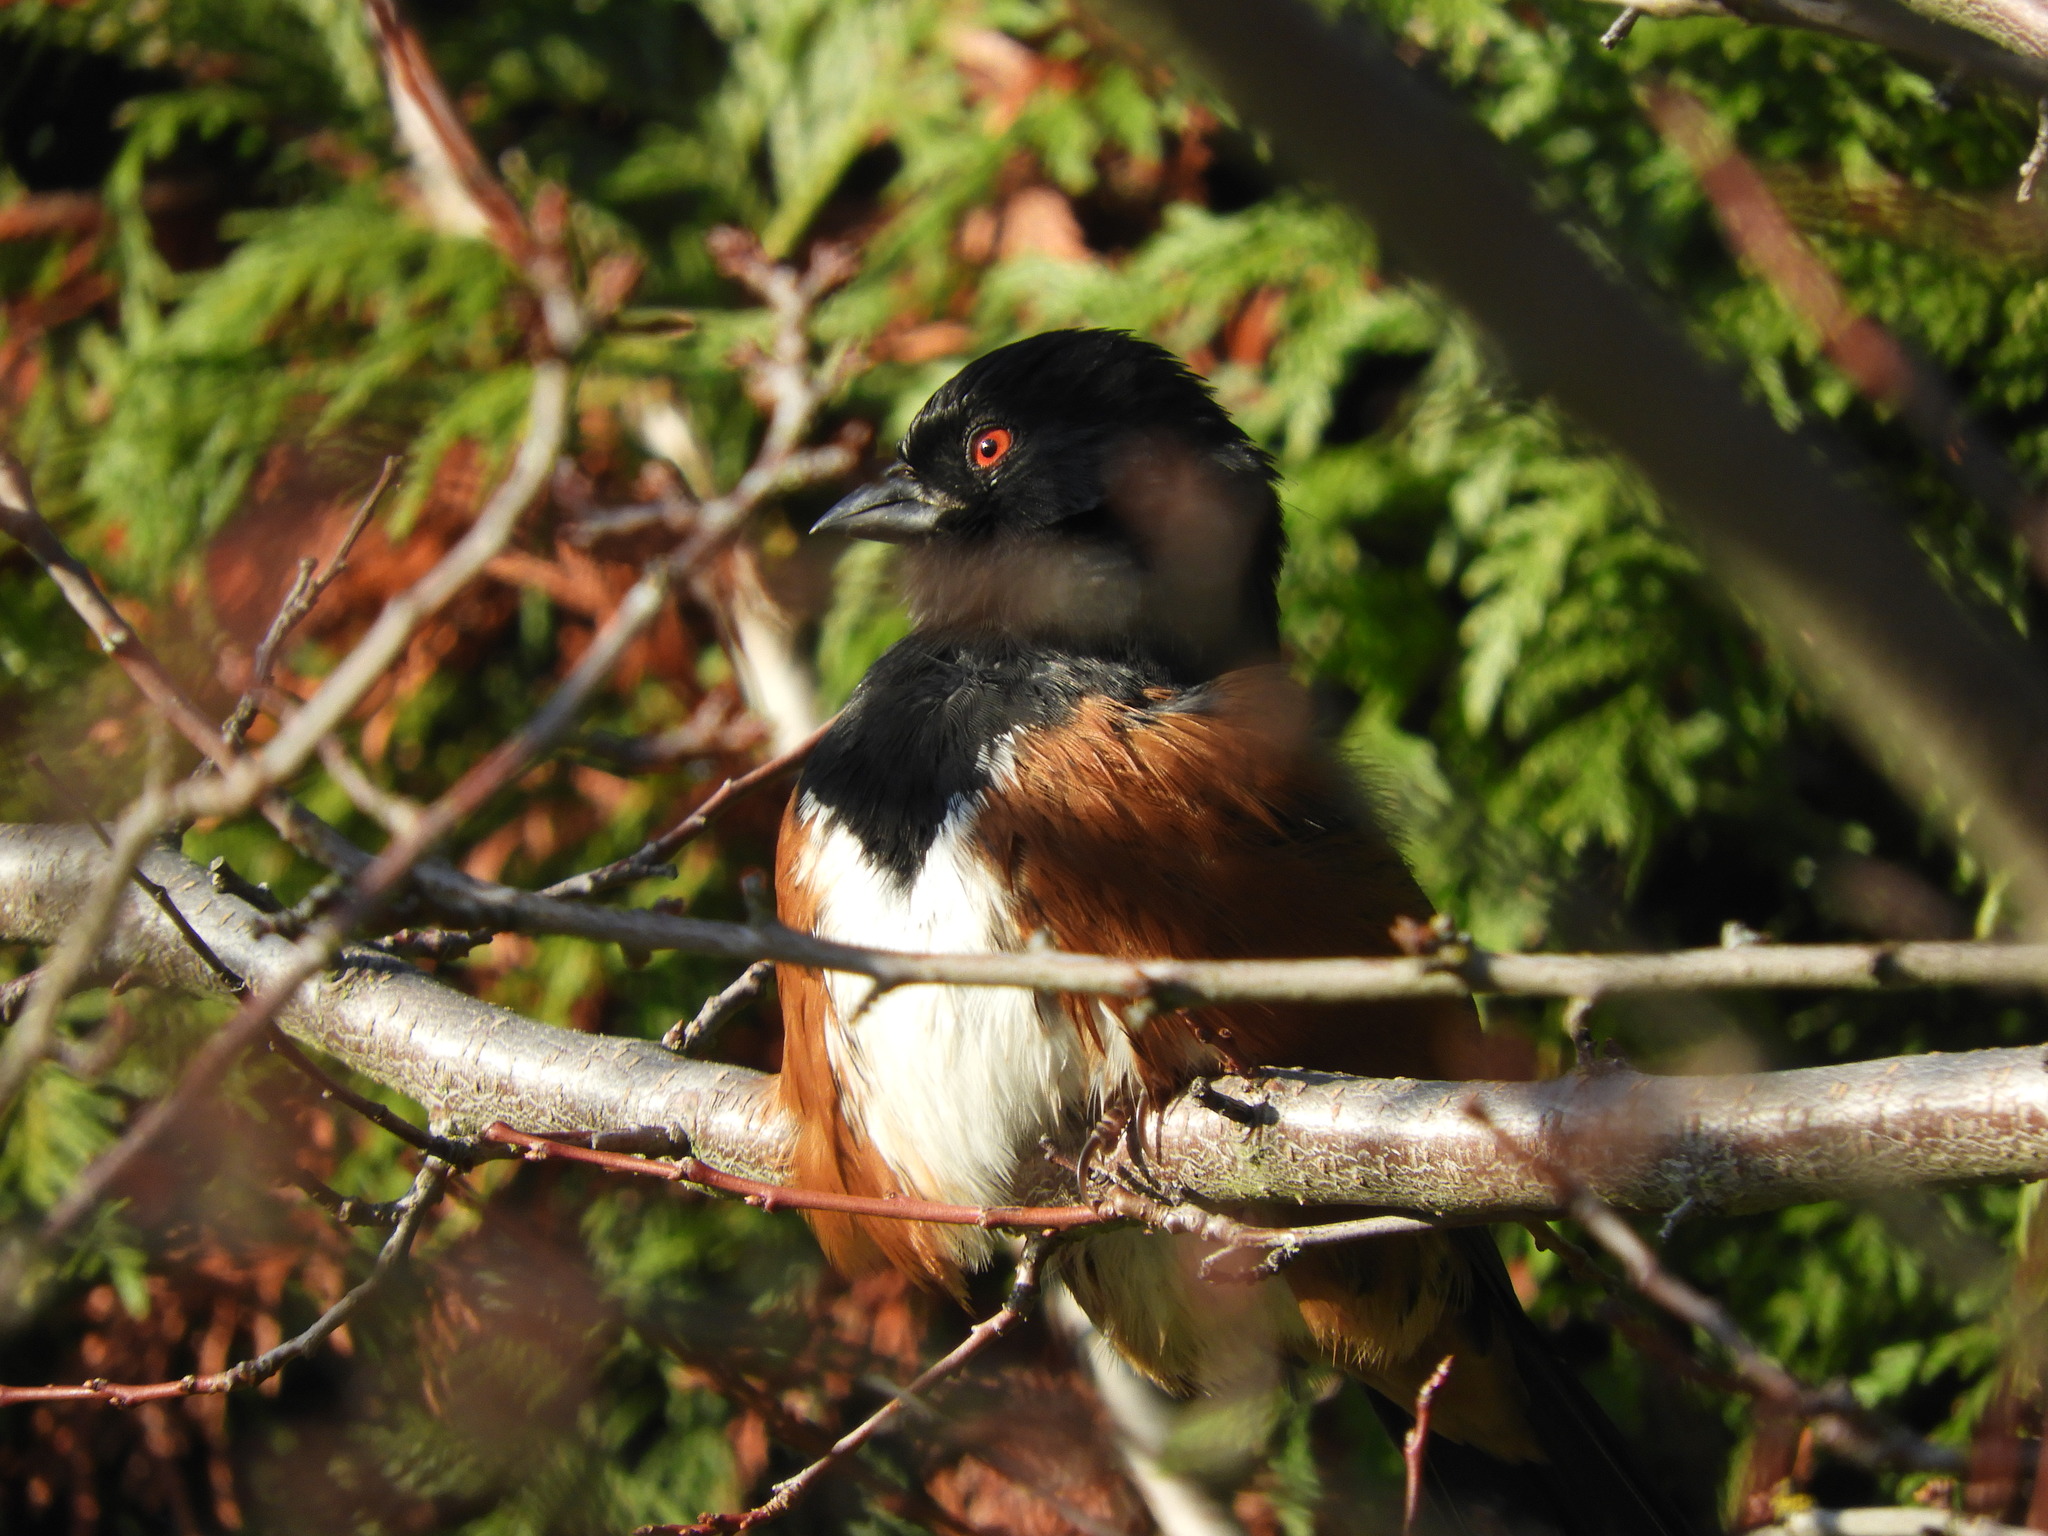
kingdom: Animalia
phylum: Chordata
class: Aves
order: Passeriformes
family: Passerellidae
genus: Pipilo
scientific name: Pipilo maculatus
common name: Spotted towhee
